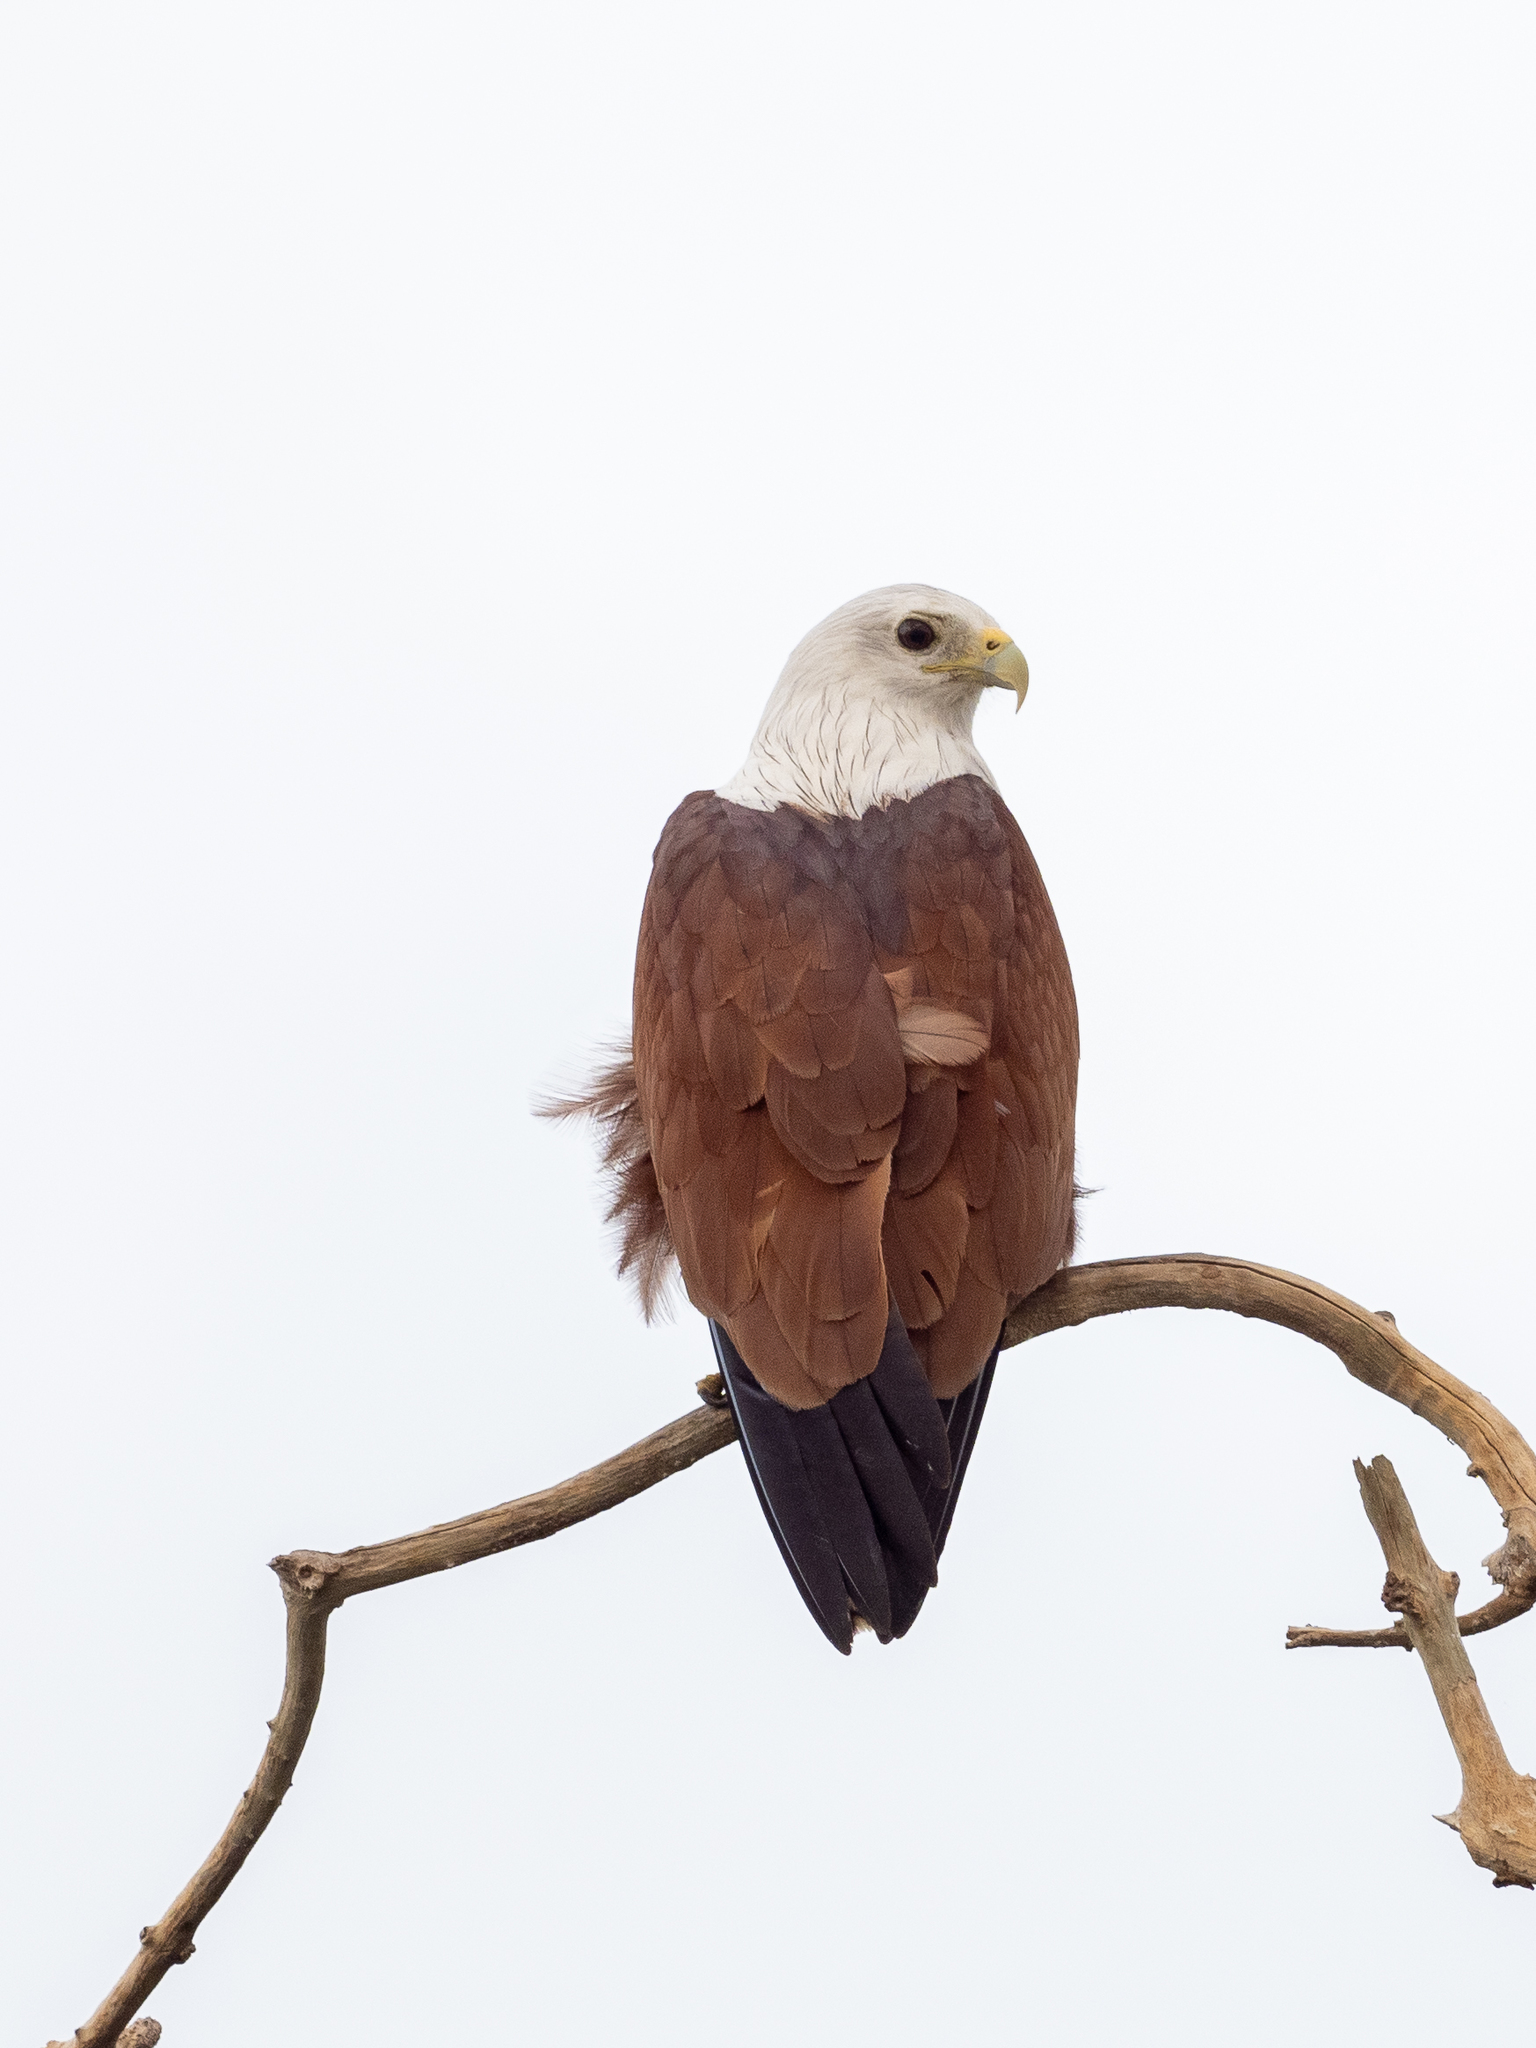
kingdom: Animalia
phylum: Chordata
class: Aves
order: Accipitriformes
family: Accipitridae
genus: Haliastur
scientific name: Haliastur indus
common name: Brahminy kite
